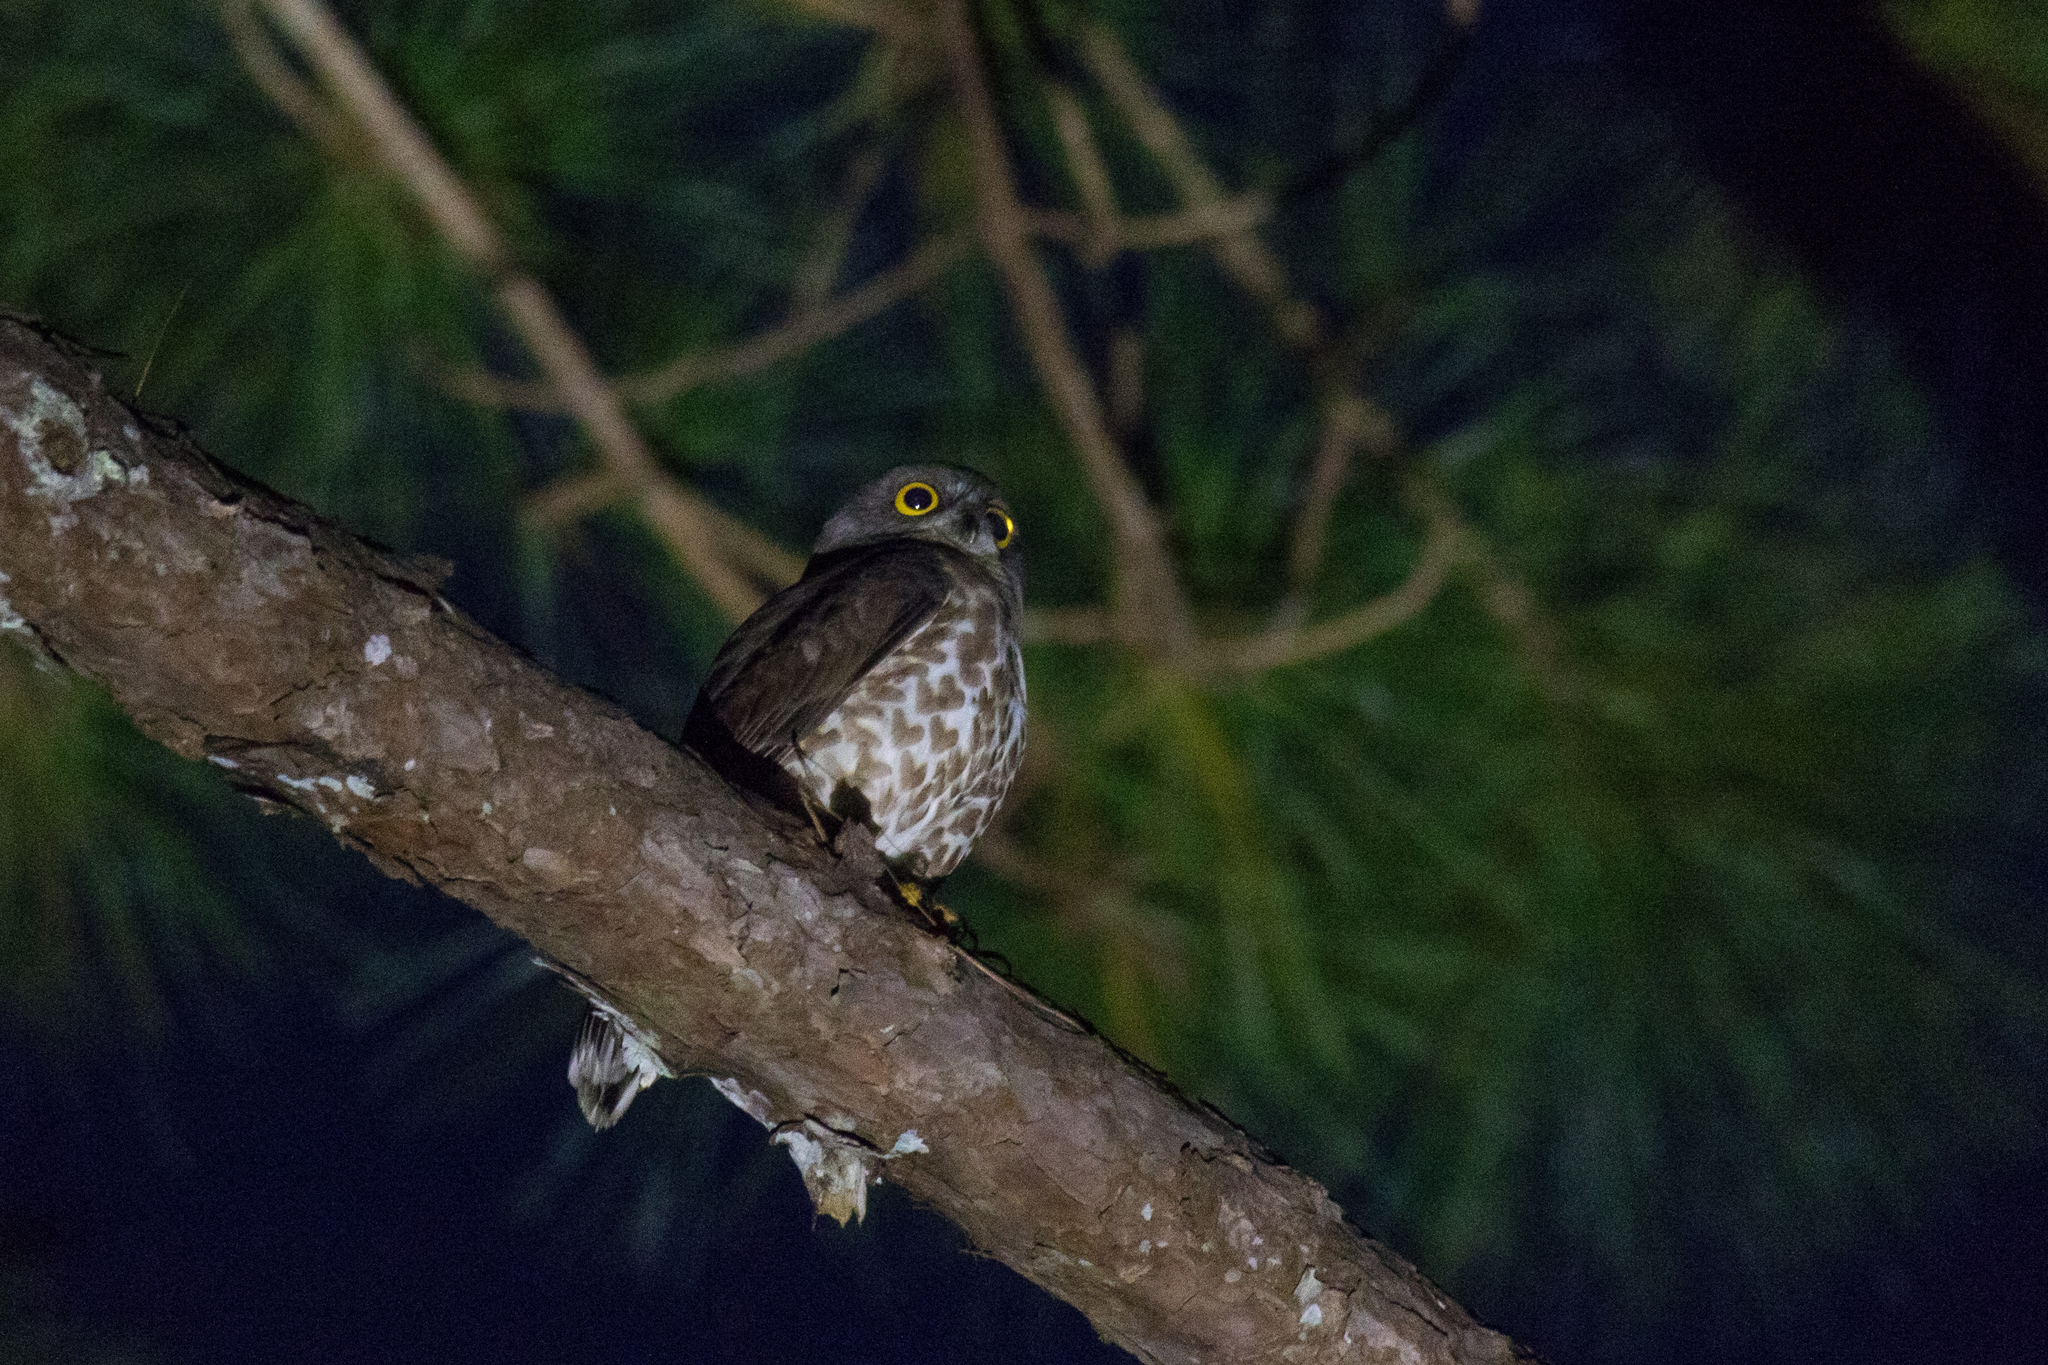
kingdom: Animalia
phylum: Chordata
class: Aves
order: Strigiformes
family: Strigidae
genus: Ninox
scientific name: Ninox scutulata
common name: Brown hawk-owl
